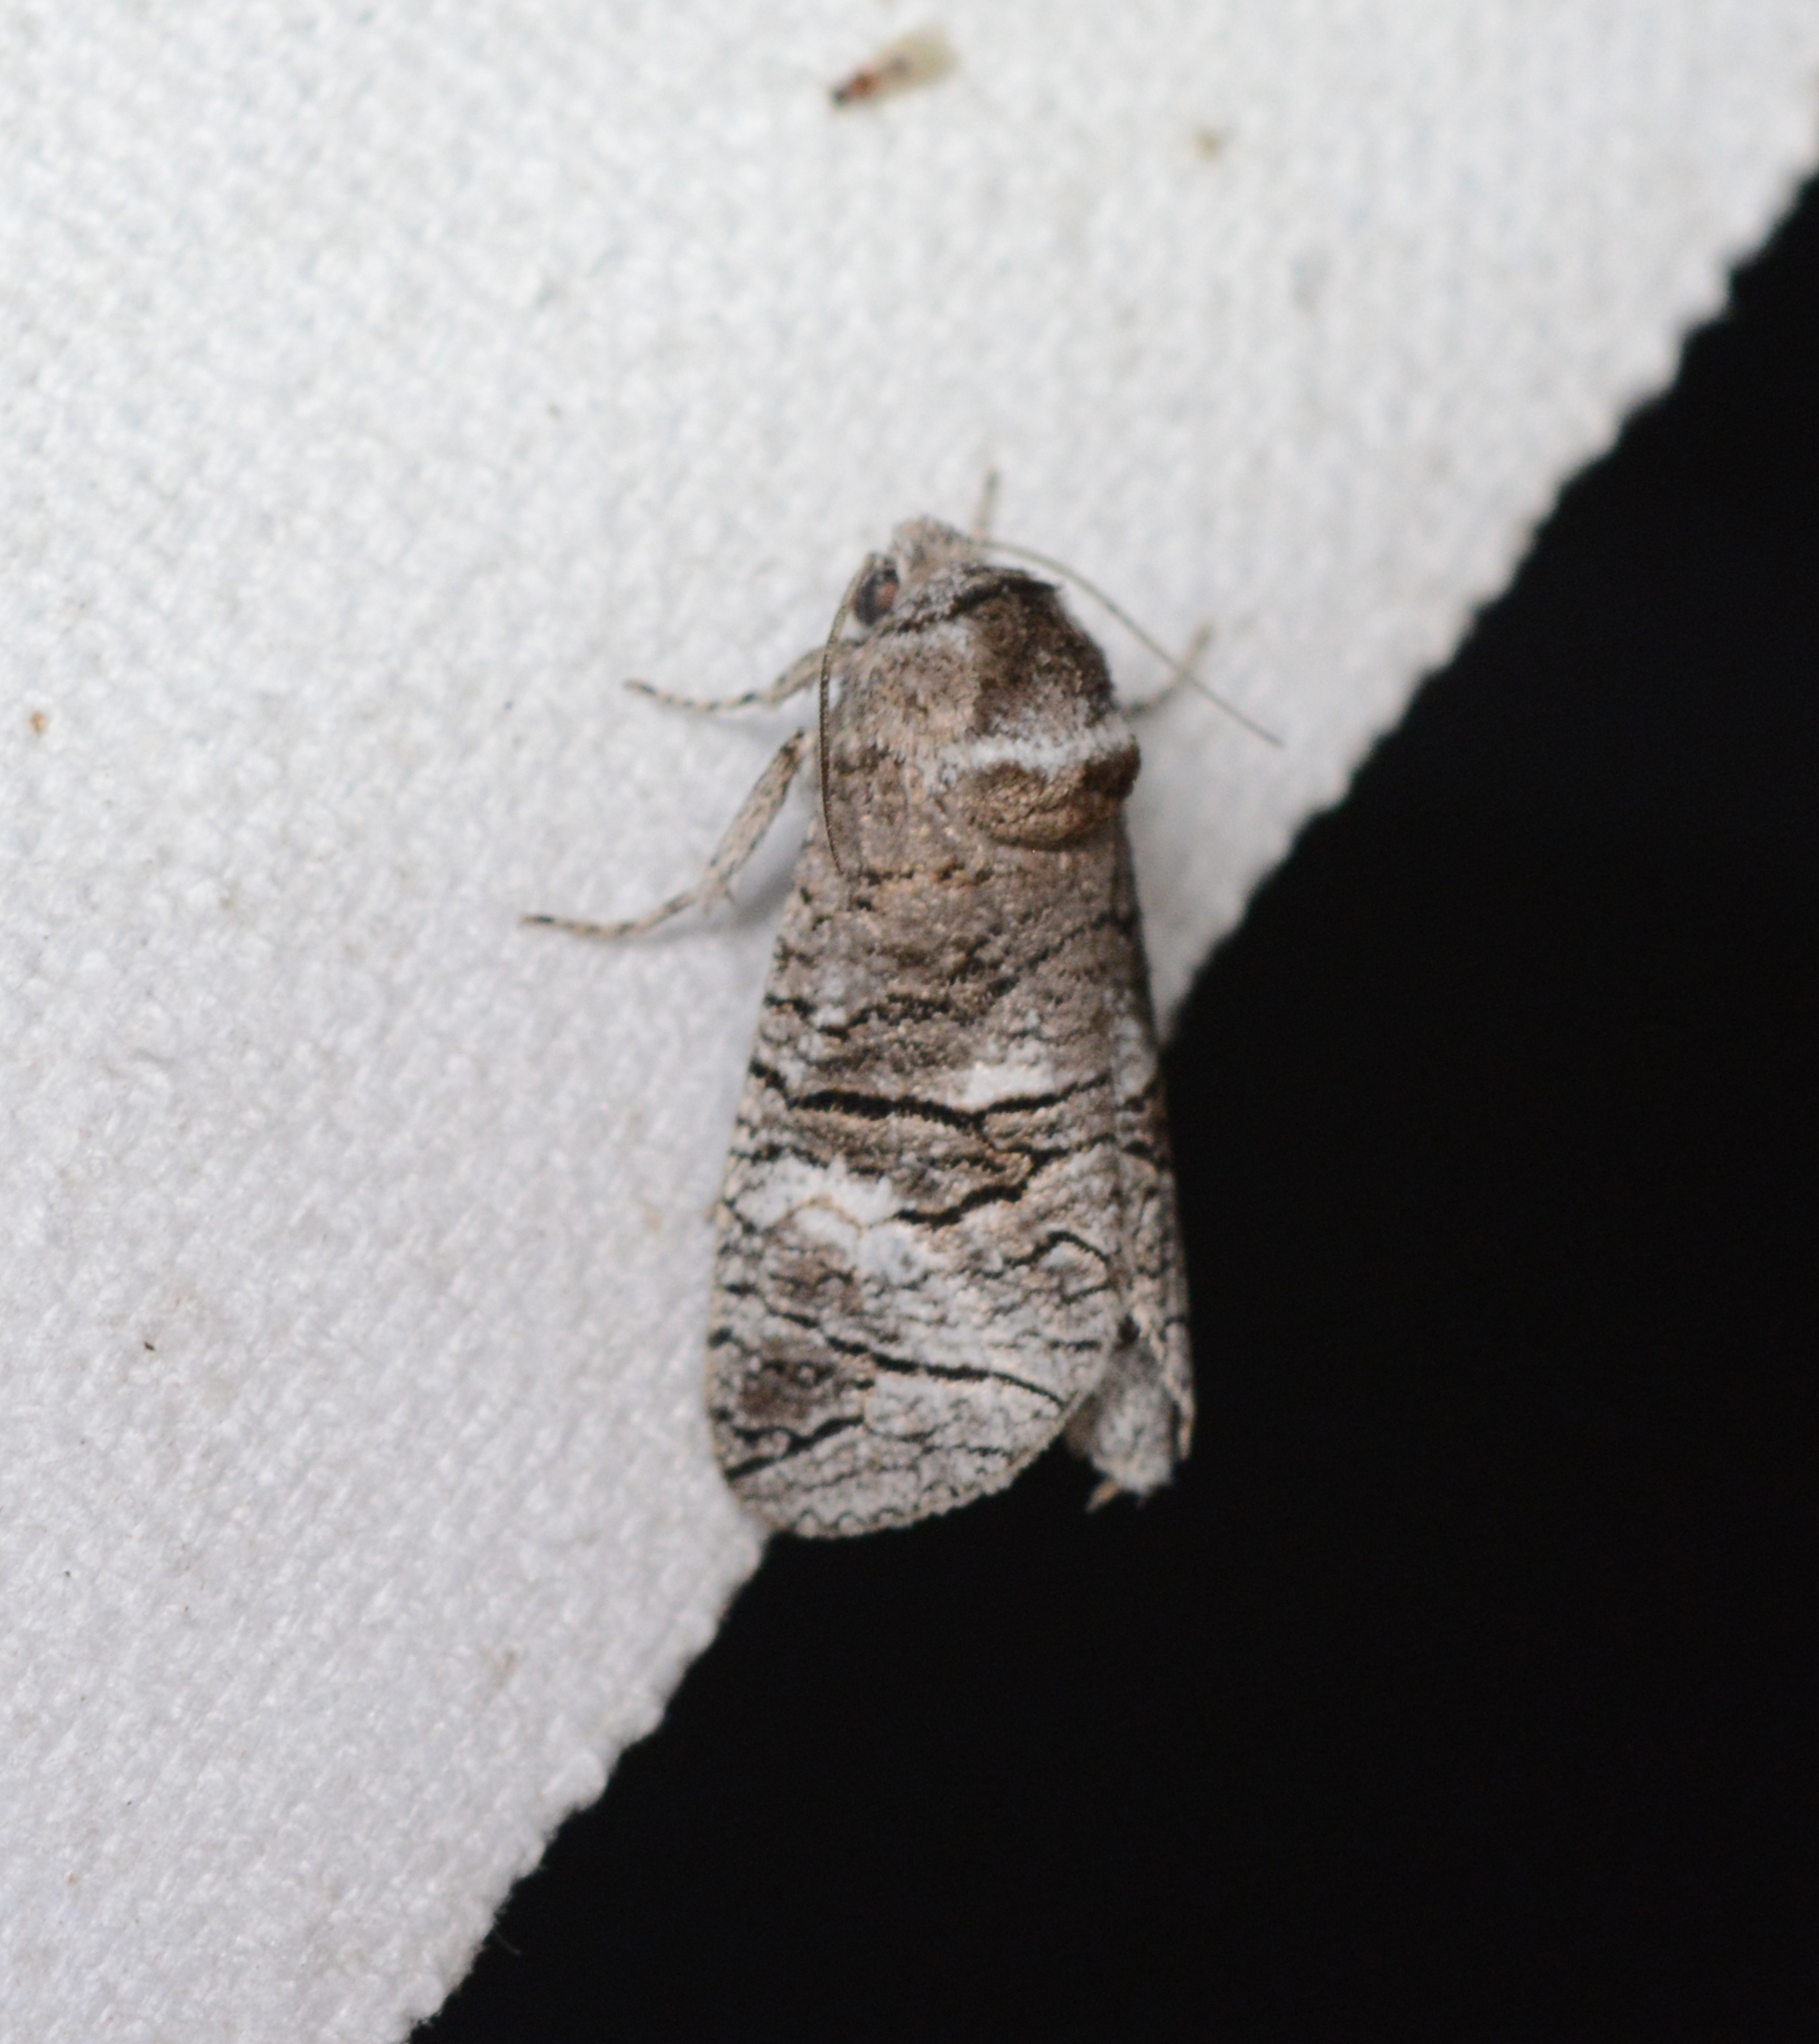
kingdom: Animalia
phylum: Arthropoda
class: Insecta
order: Lepidoptera
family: Cossidae
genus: Fania
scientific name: Fania nanus
